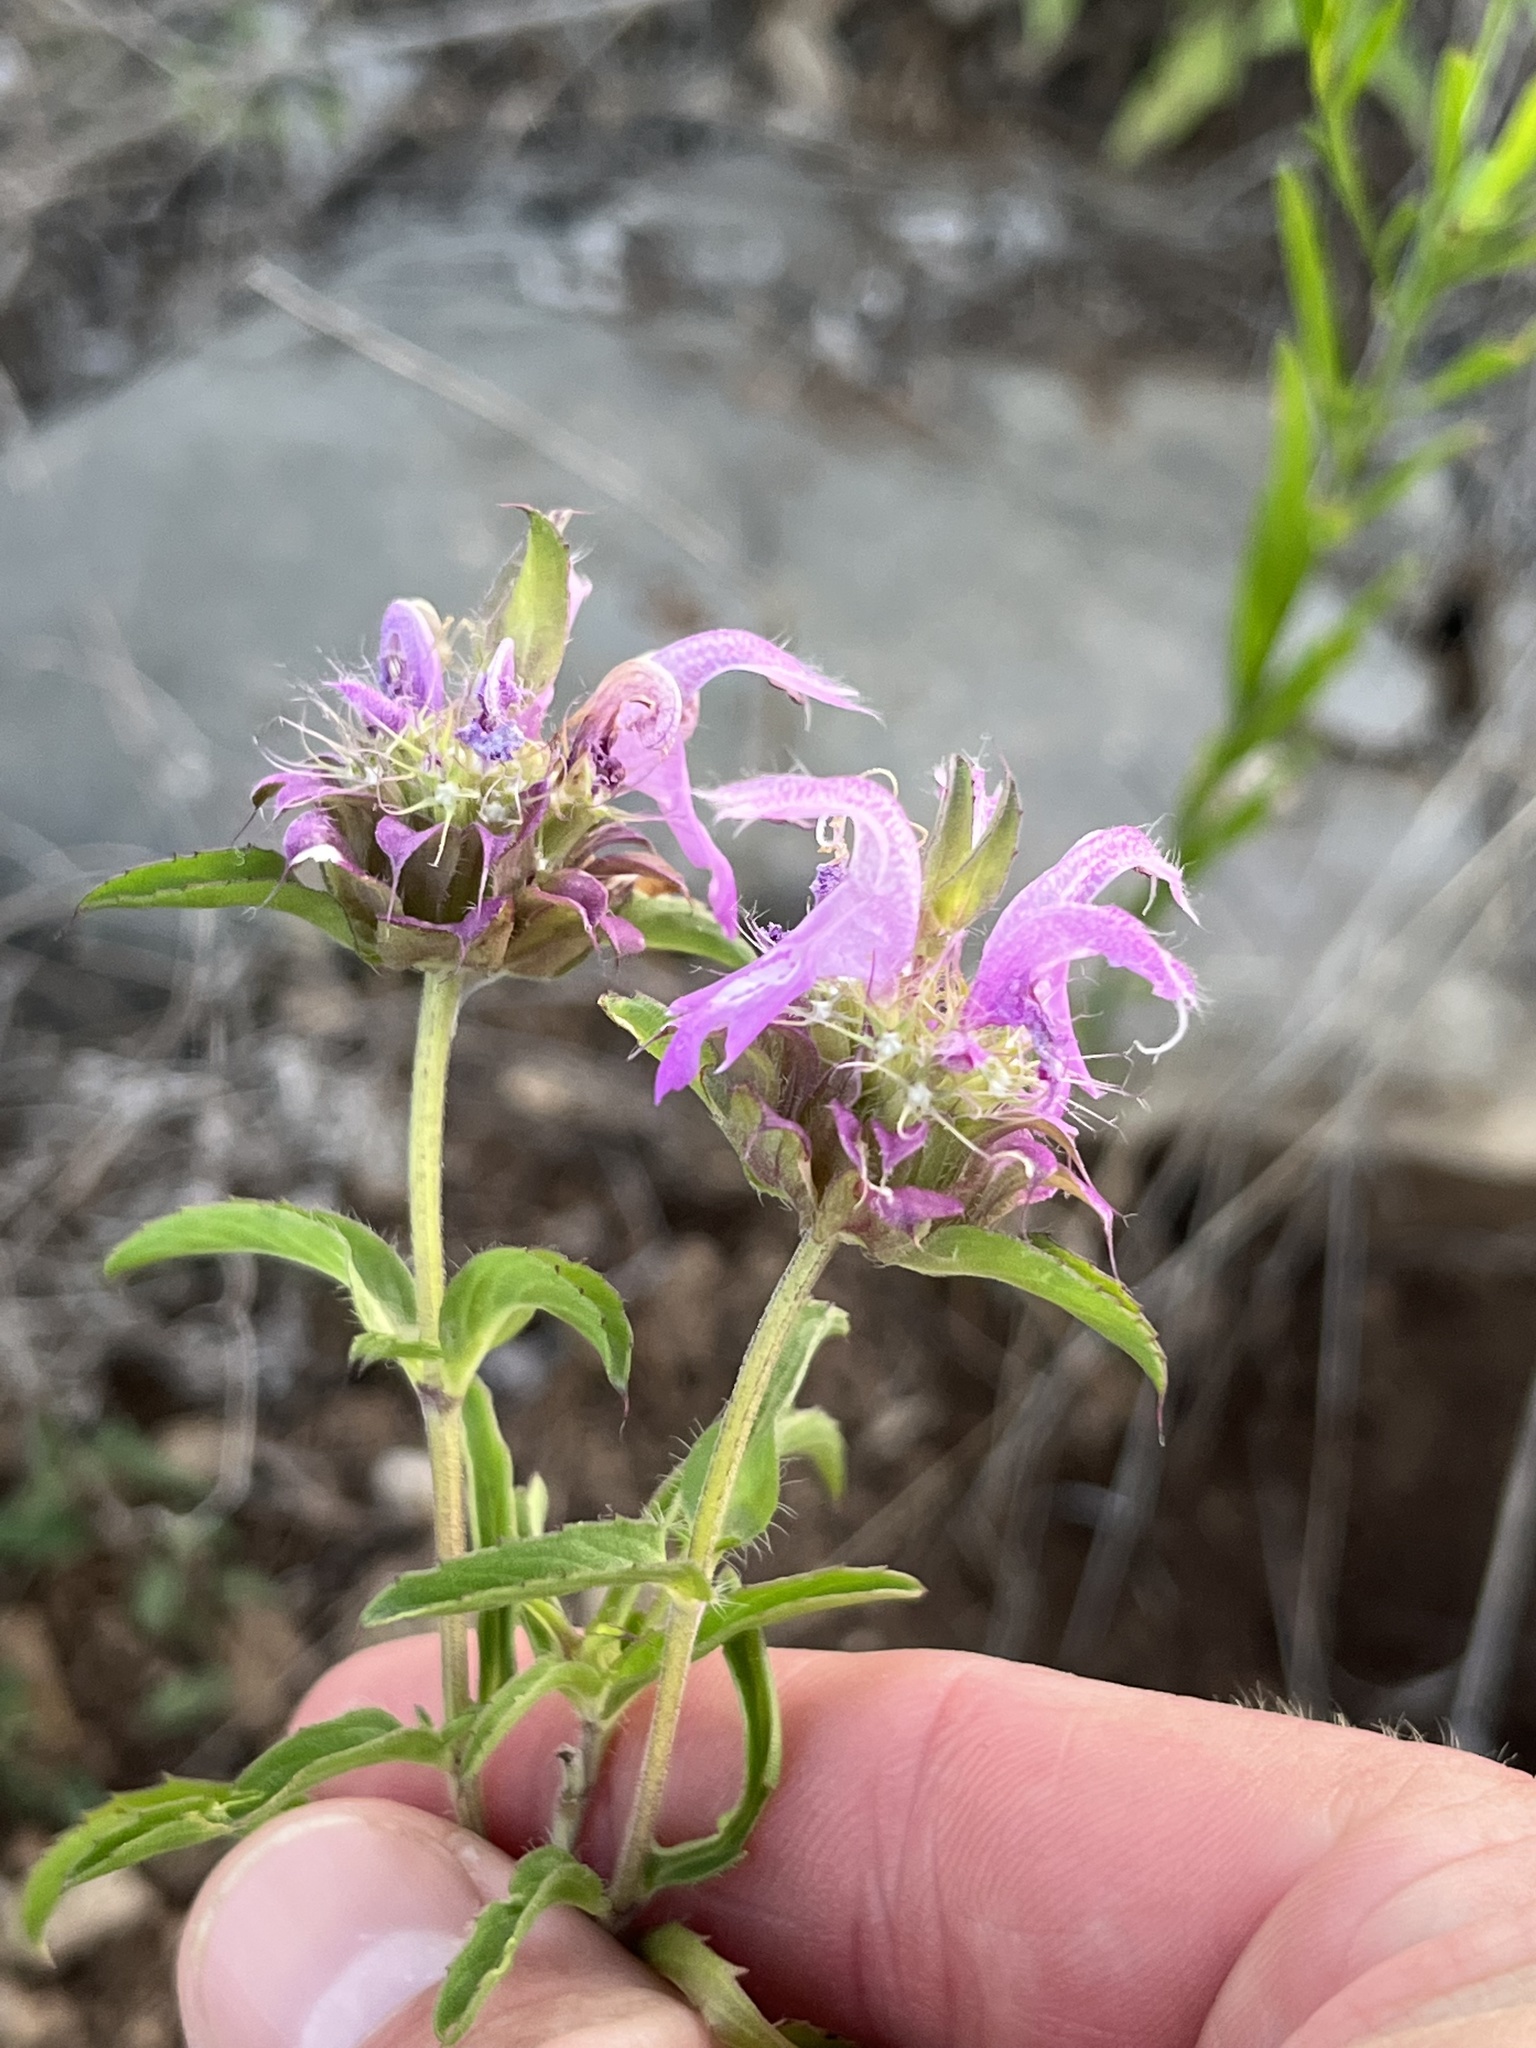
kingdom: Plantae
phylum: Tracheophyta
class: Magnoliopsida
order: Lamiales
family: Lamiaceae
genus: Monarda
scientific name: Monarda citriodora
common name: Lemon beebalm
